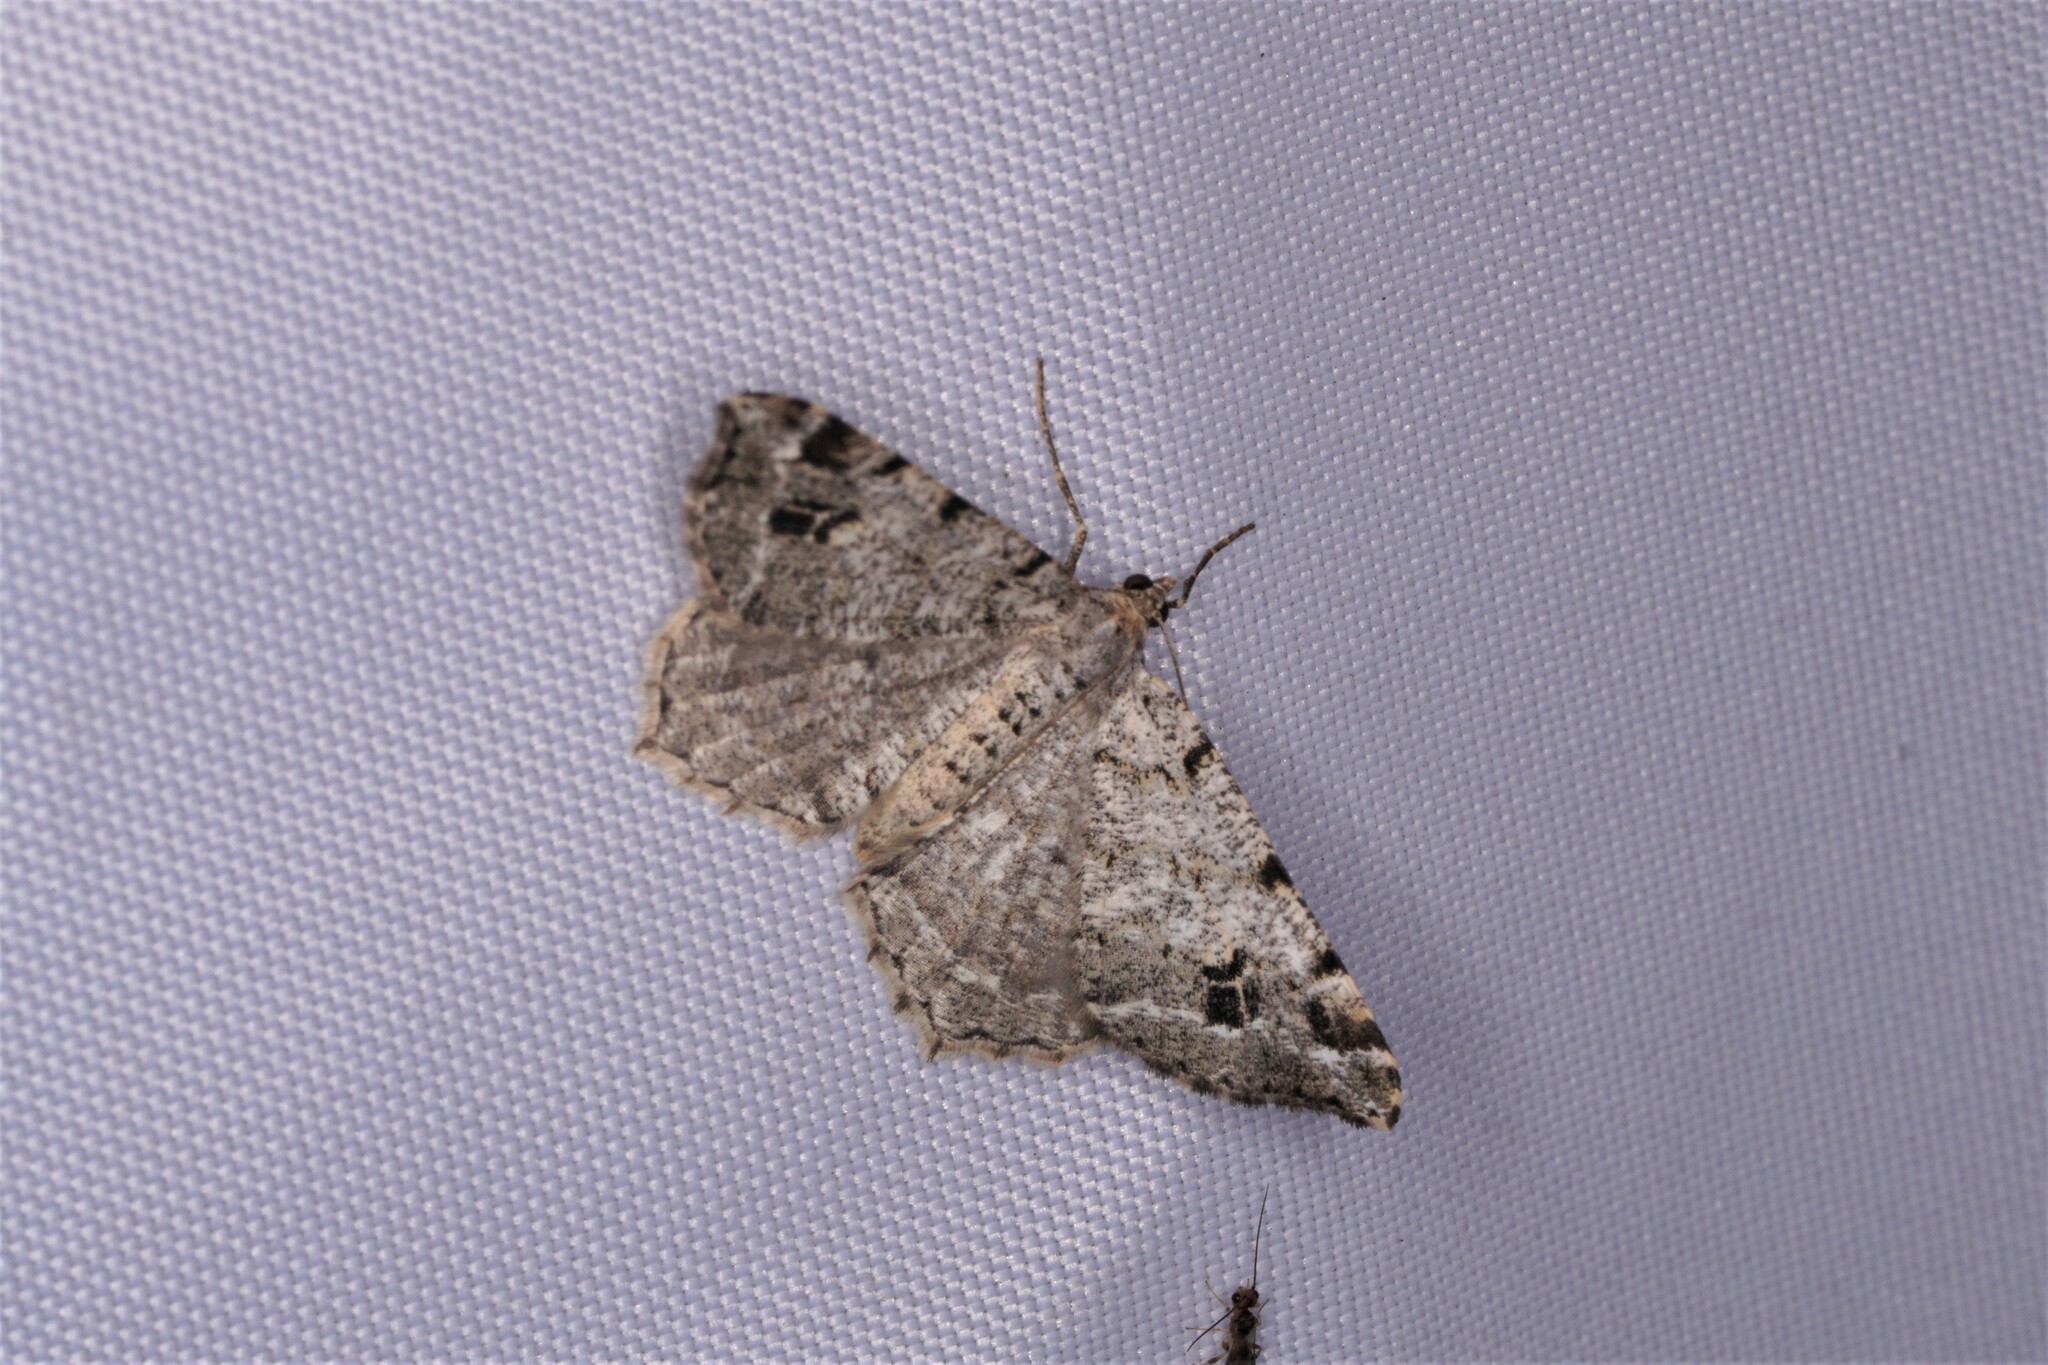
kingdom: Animalia
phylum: Arthropoda
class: Insecta
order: Lepidoptera
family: Geometridae
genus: Macaria
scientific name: Macaria pinistrobata
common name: White pine angle
